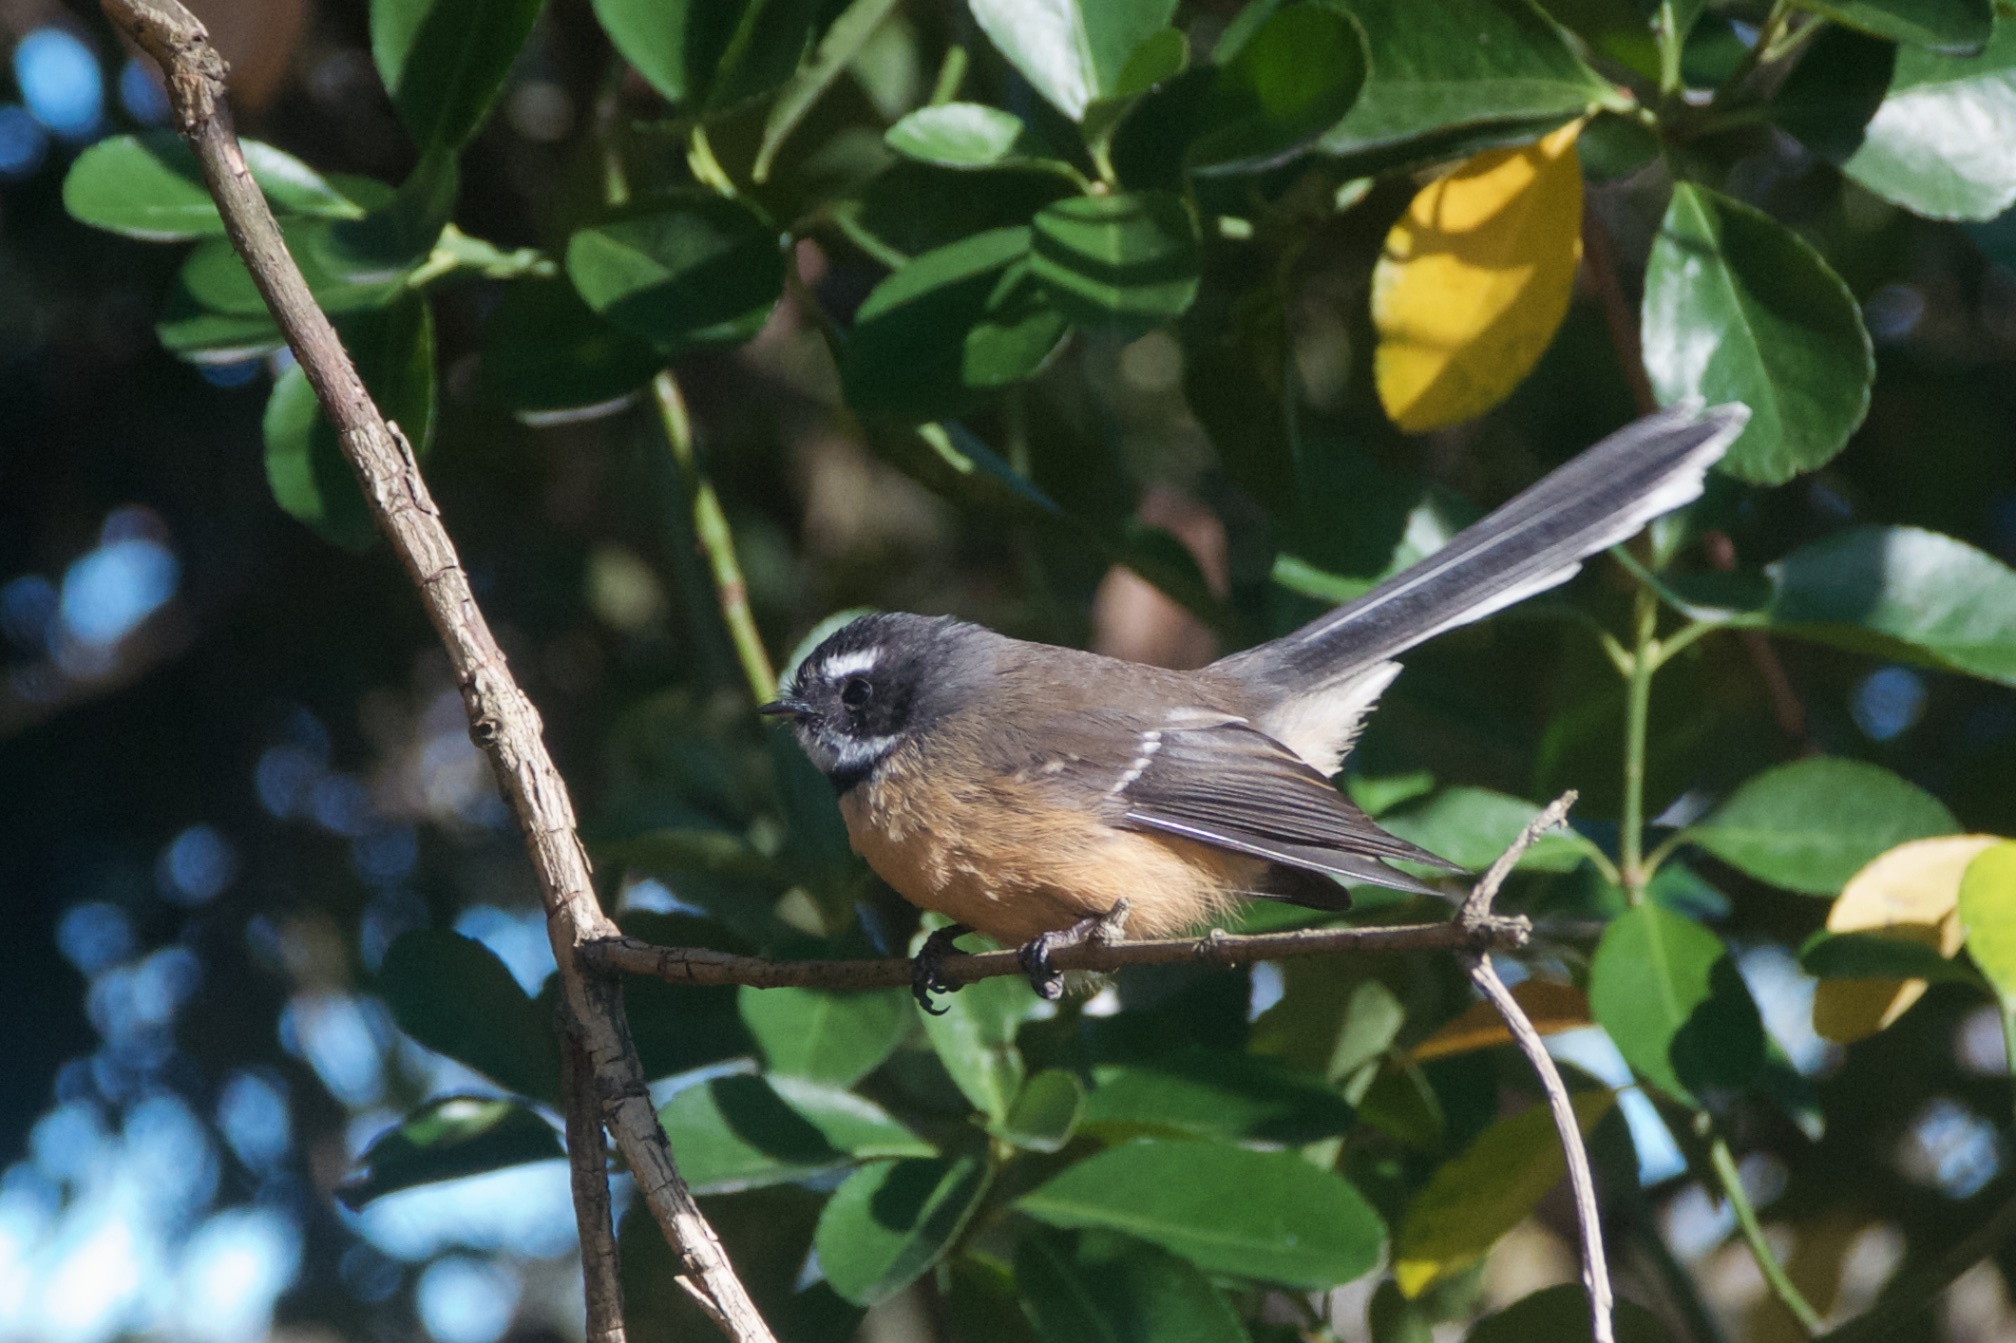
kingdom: Animalia
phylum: Chordata
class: Aves
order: Passeriformes
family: Rhipiduridae
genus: Rhipidura
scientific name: Rhipidura fuliginosa
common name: New zealand fantail
